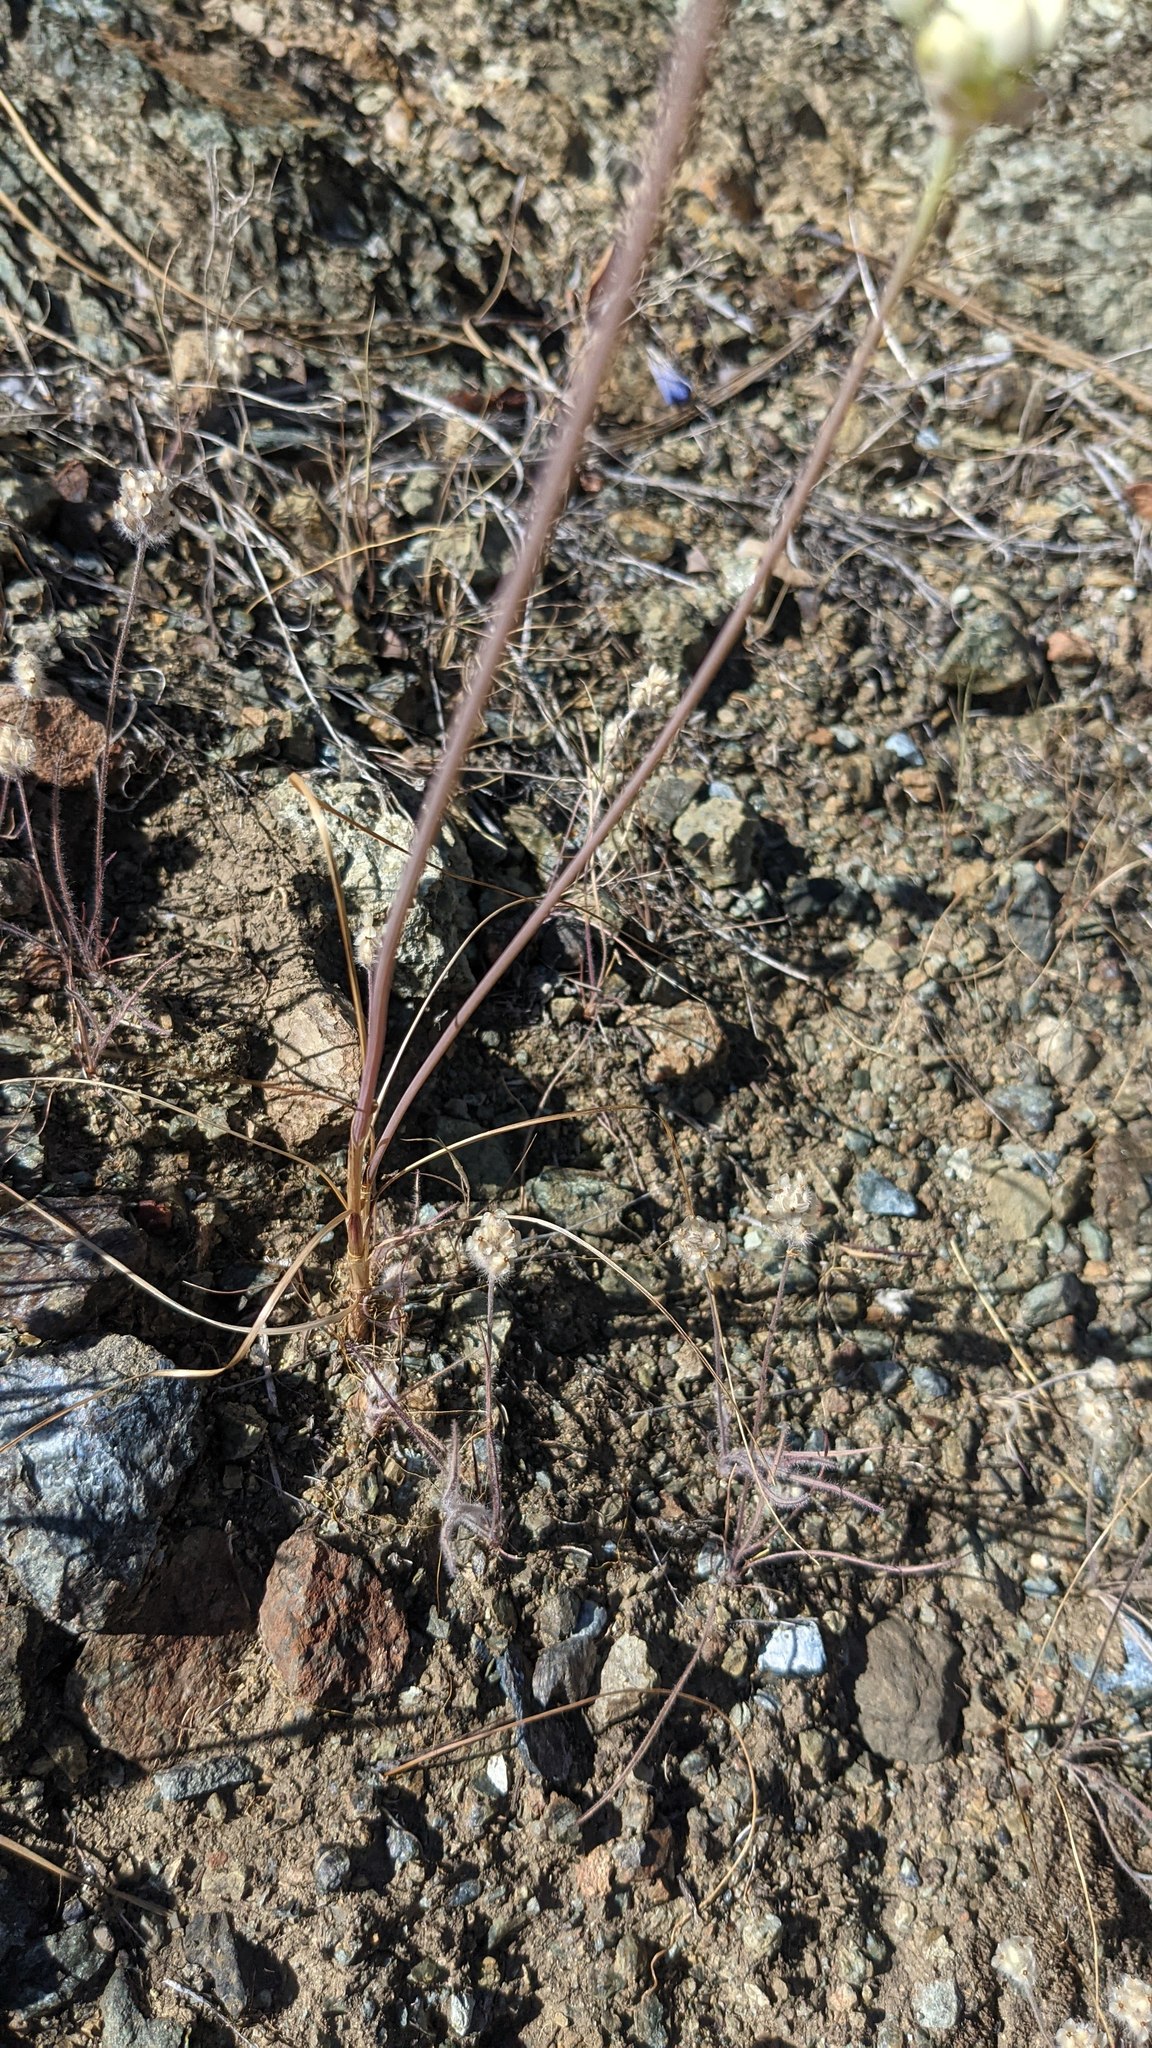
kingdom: Plantae
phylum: Tracheophyta
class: Liliopsida
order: Asparagales
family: Amaryllidaceae
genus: Allium
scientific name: Allium amplectens
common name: Narrow-leaved onion
